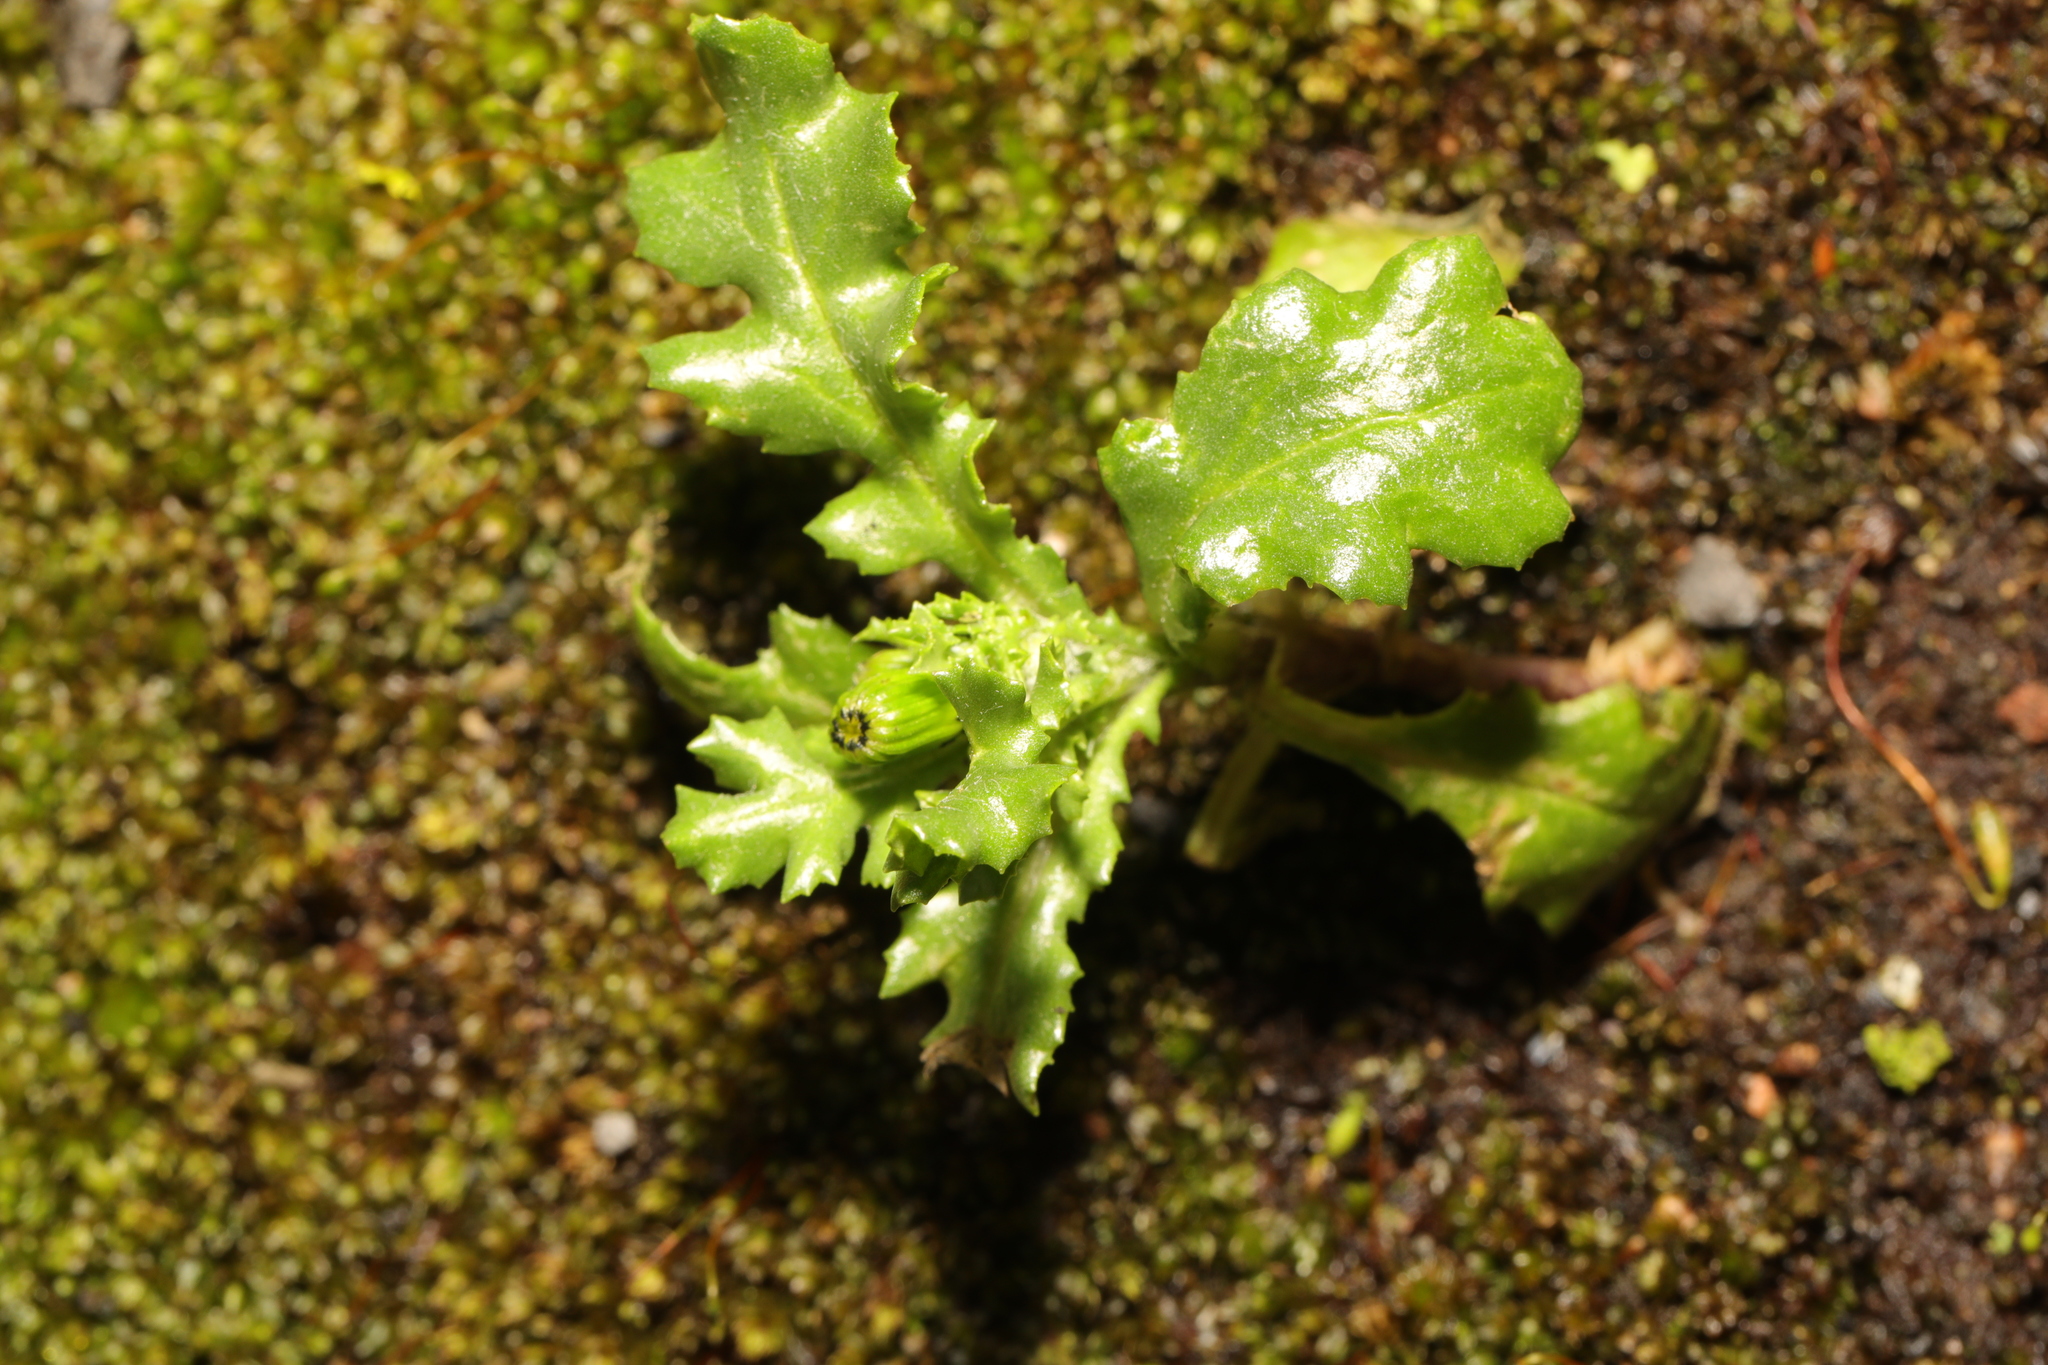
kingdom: Plantae
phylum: Tracheophyta
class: Magnoliopsida
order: Asterales
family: Asteraceae
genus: Senecio
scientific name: Senecio vulgaris
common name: Old-man-in-the-spring
